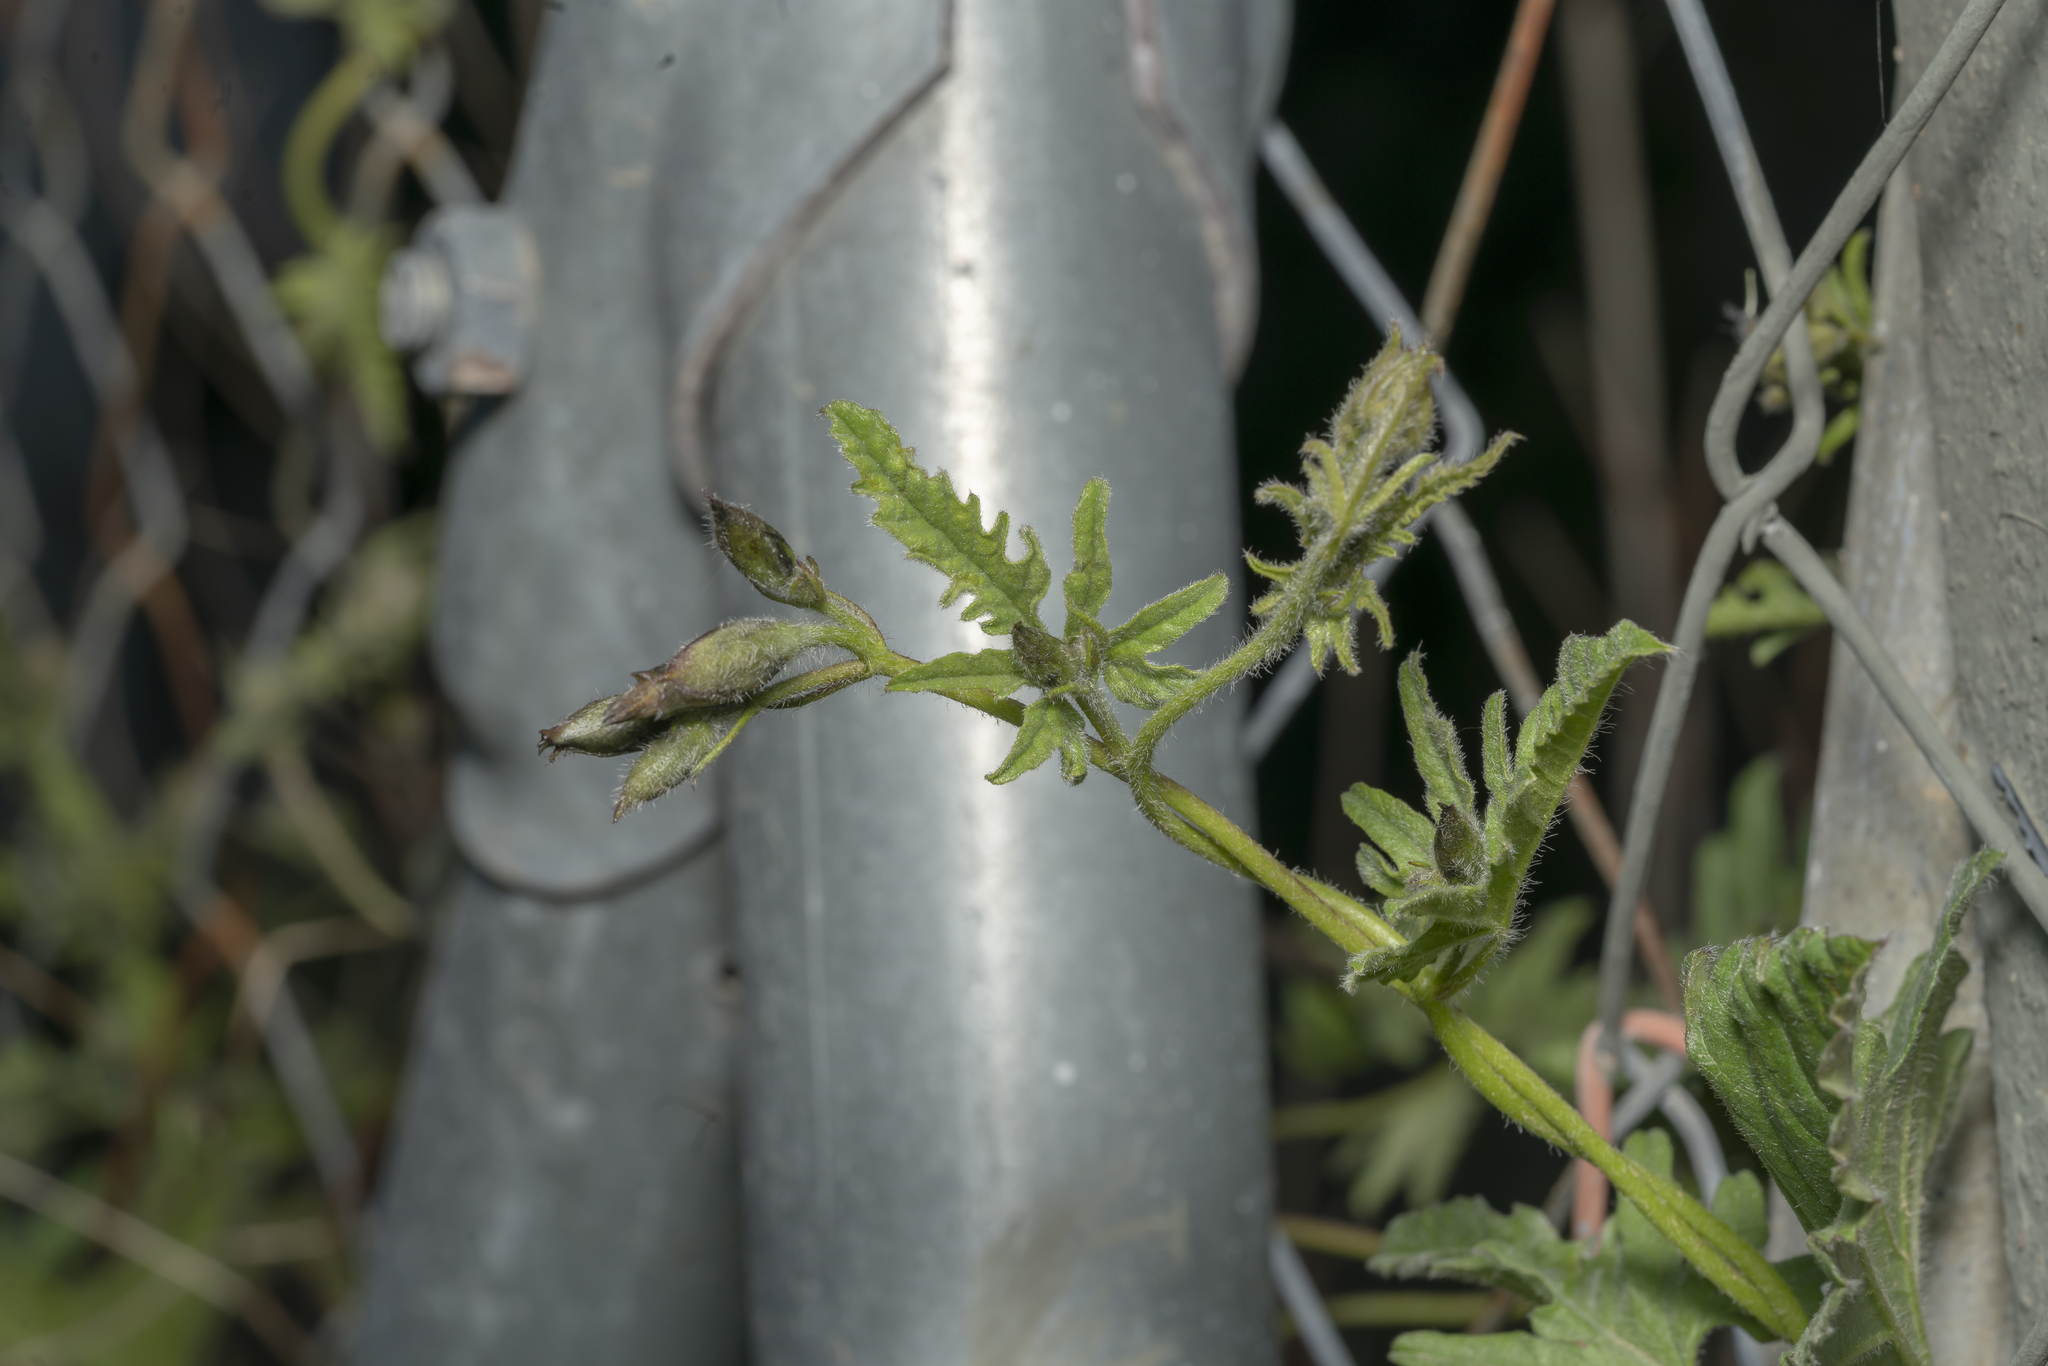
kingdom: Plantae
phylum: Tracheophyta
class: Magnoliopsida
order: Solanales
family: Convolvulaceae
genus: Convolvulus
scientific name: Convolvulus althaeoides
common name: Mallow bindweed
